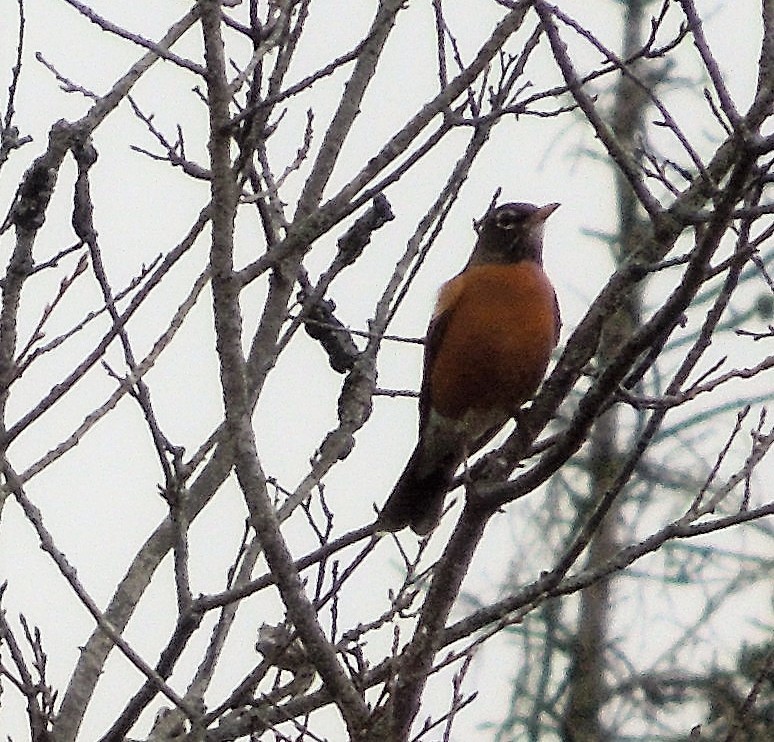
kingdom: Animalia
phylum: Chordata
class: Aves
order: Passeriformes
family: Turdidae
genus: Turdus
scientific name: Turdus migratorius
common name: American robin
